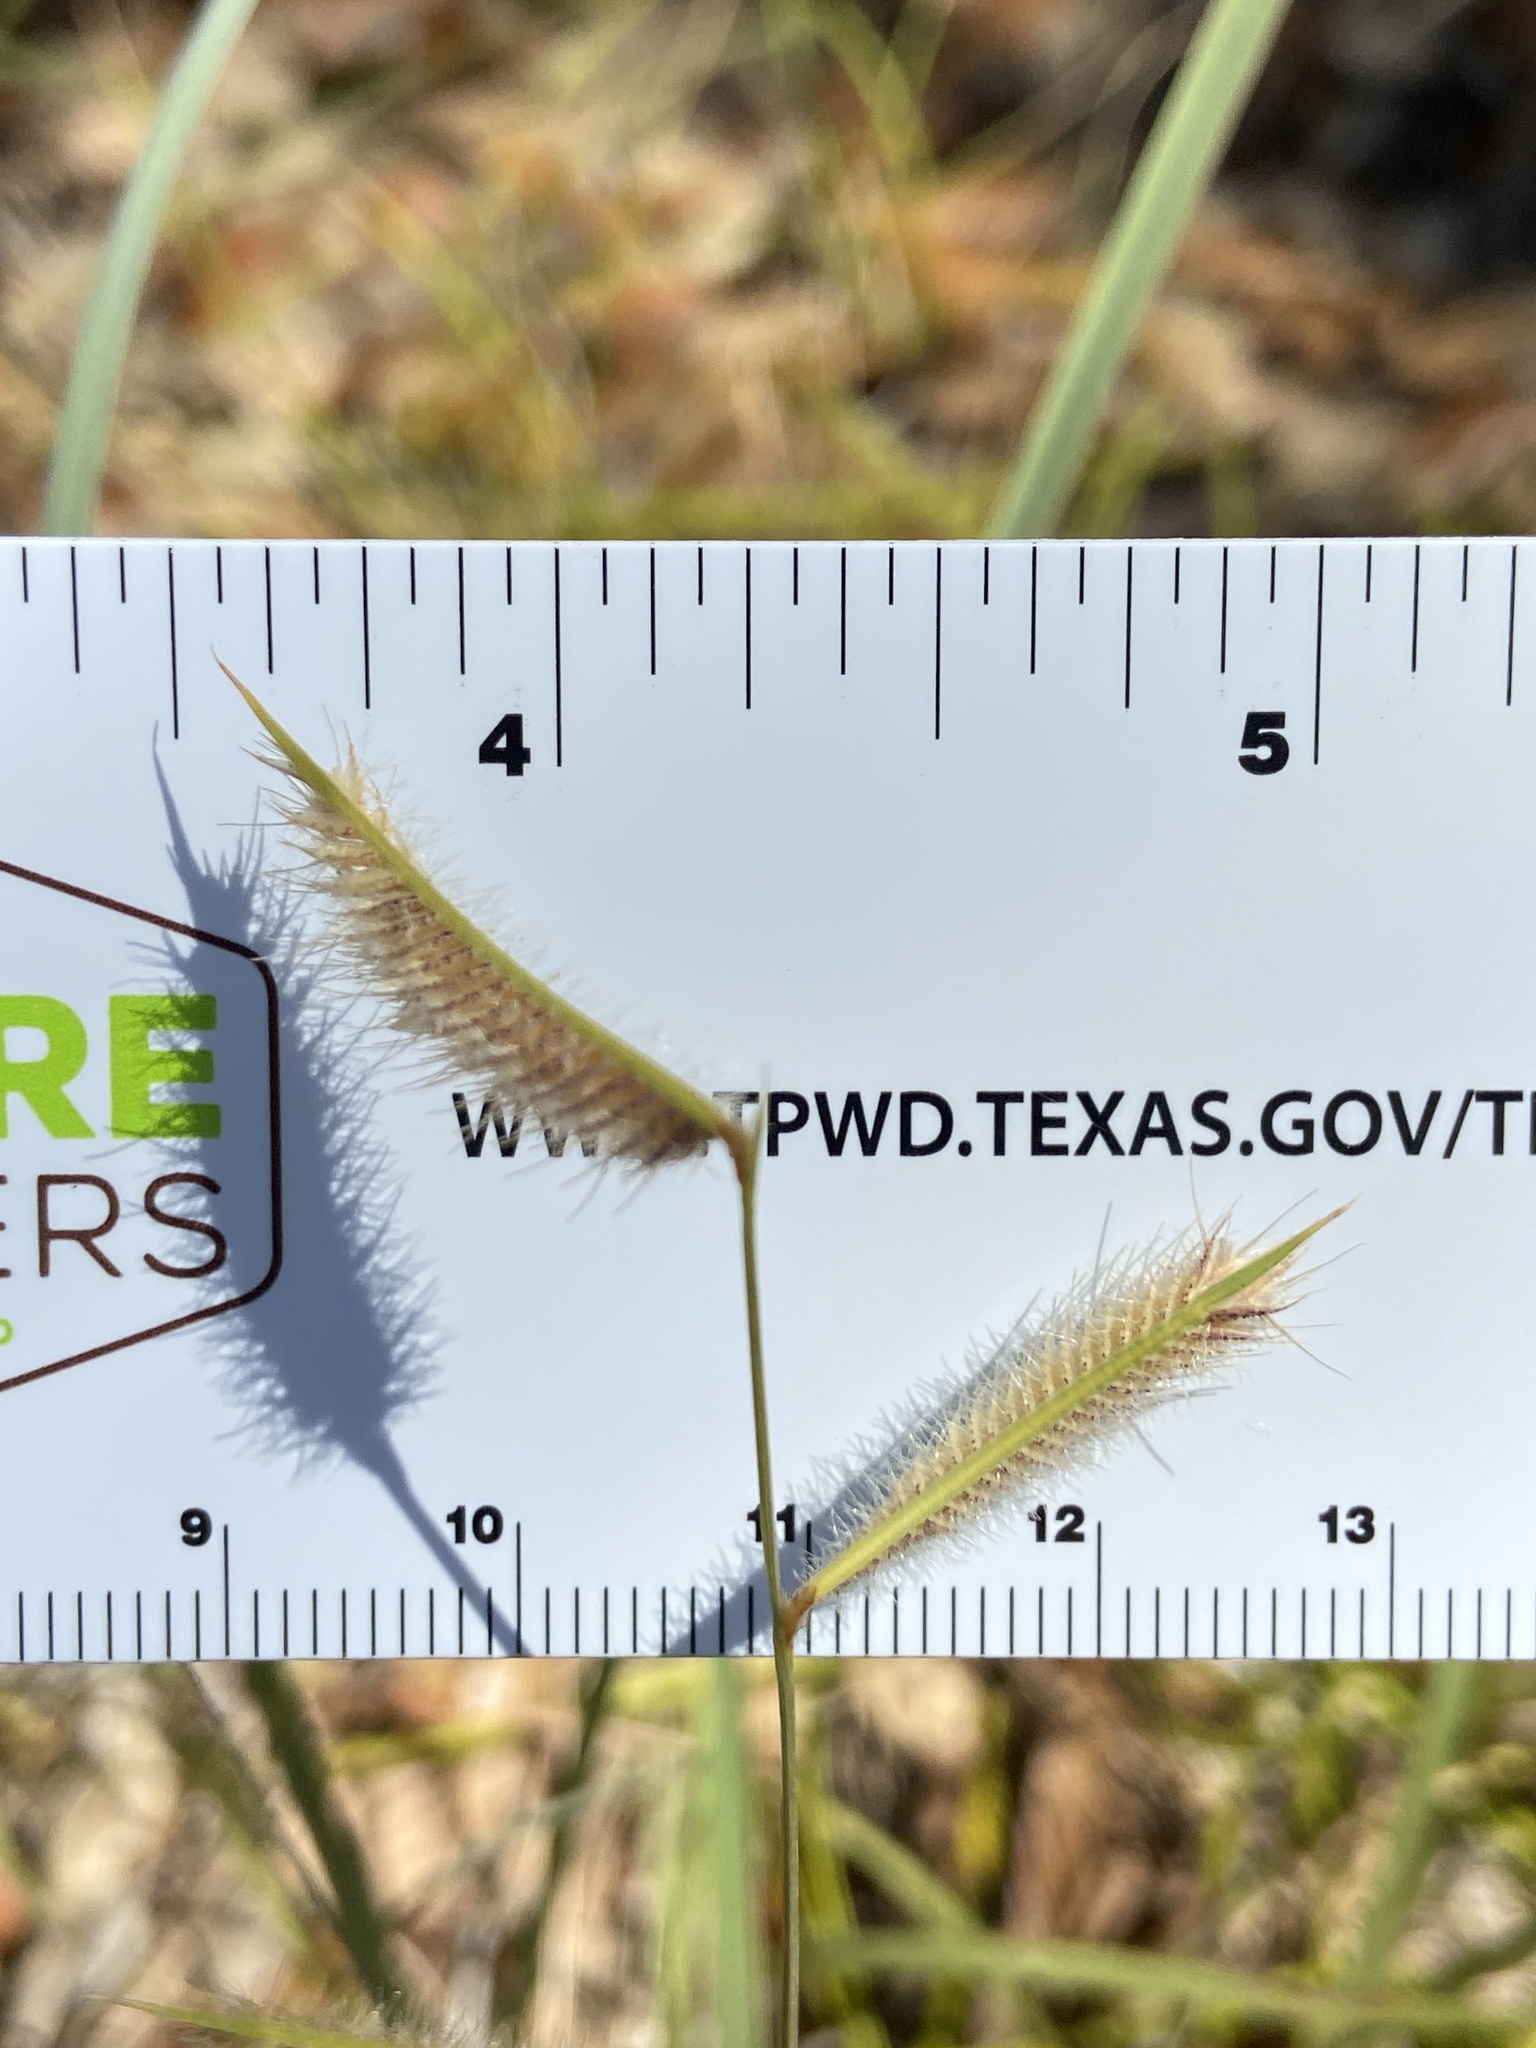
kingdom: Plantae
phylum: Tracheophyta
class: Liliopsida
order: Poales
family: Poaceae
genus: Bouteloua
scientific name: Bouteloua hirsuta
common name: Hairy grama
